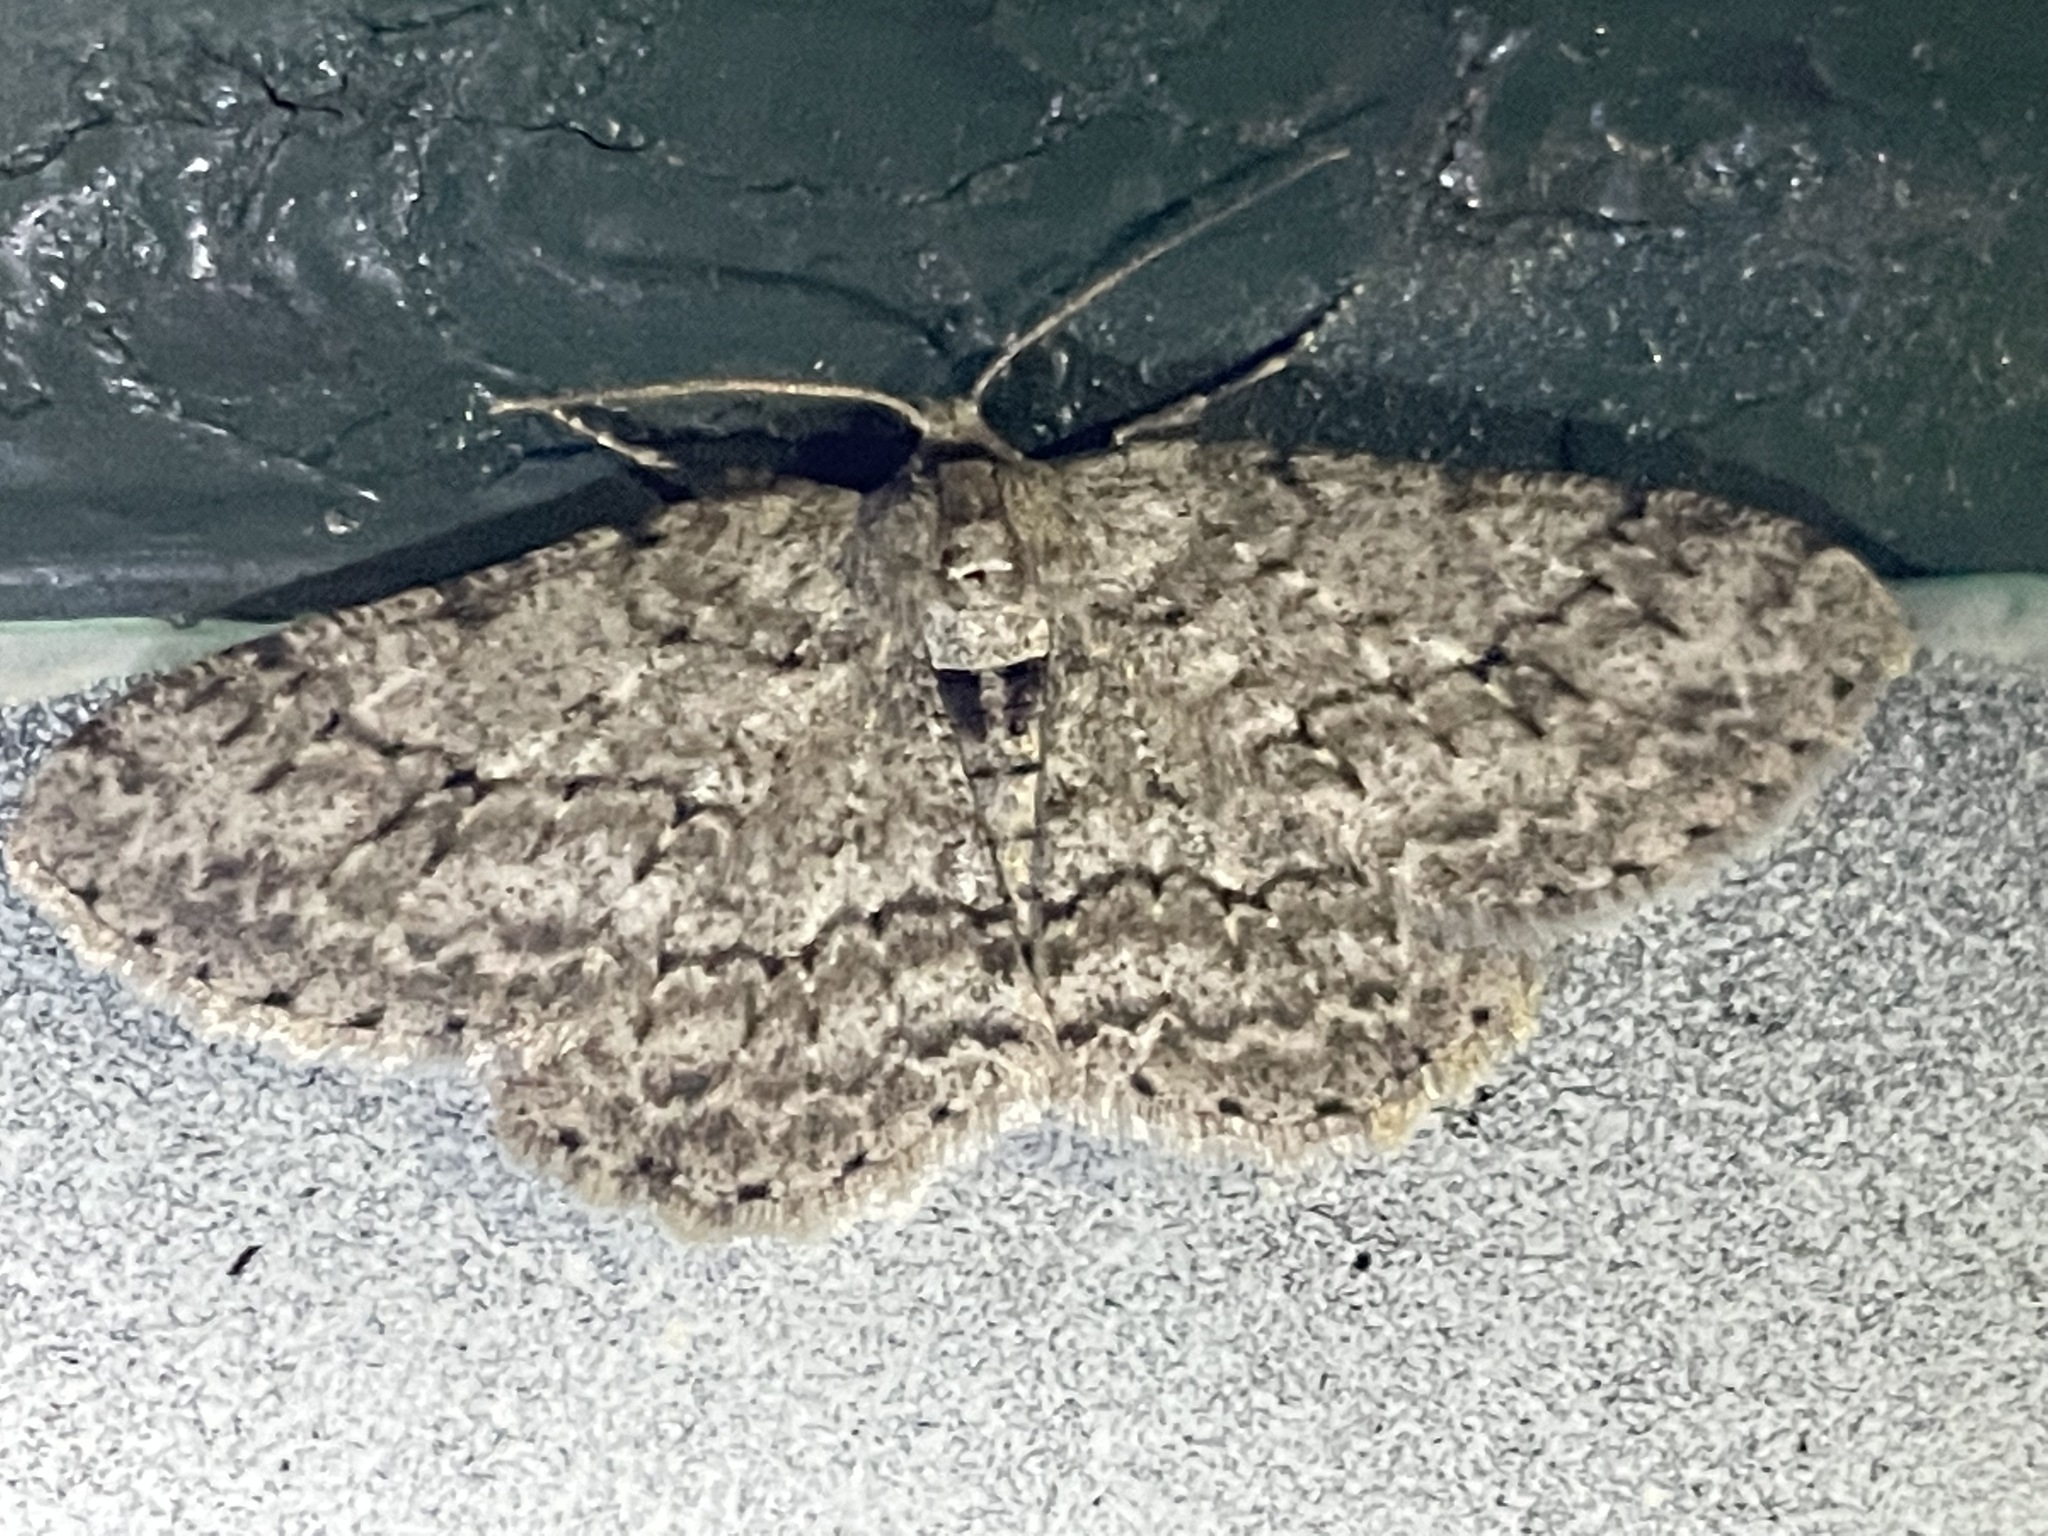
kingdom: Animalia
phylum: Arthropoda
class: Insecta
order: Lepidoptera
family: Geometridae
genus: Ectropis
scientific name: Ectropis crepuscularia
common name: Engrailed
